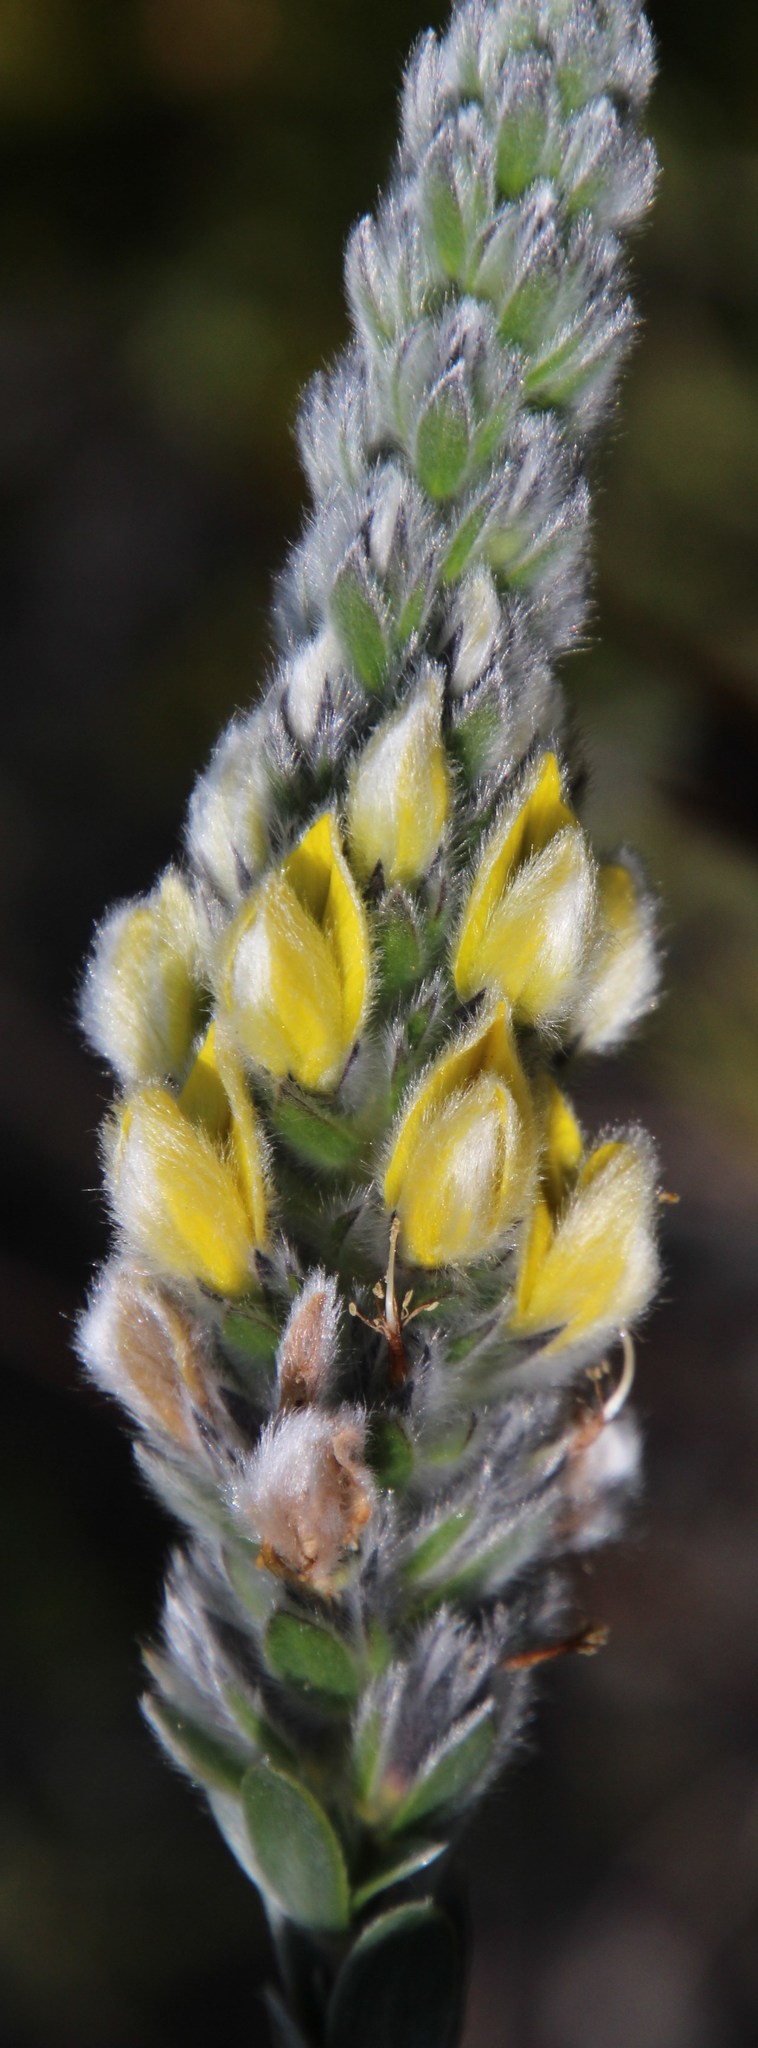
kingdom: Plantae
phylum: Tracheophyta
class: Magnoliopsida
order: Fabales
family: Fabaceae
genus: Aspalathus
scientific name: Aspalathus sericea
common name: Silky pea
